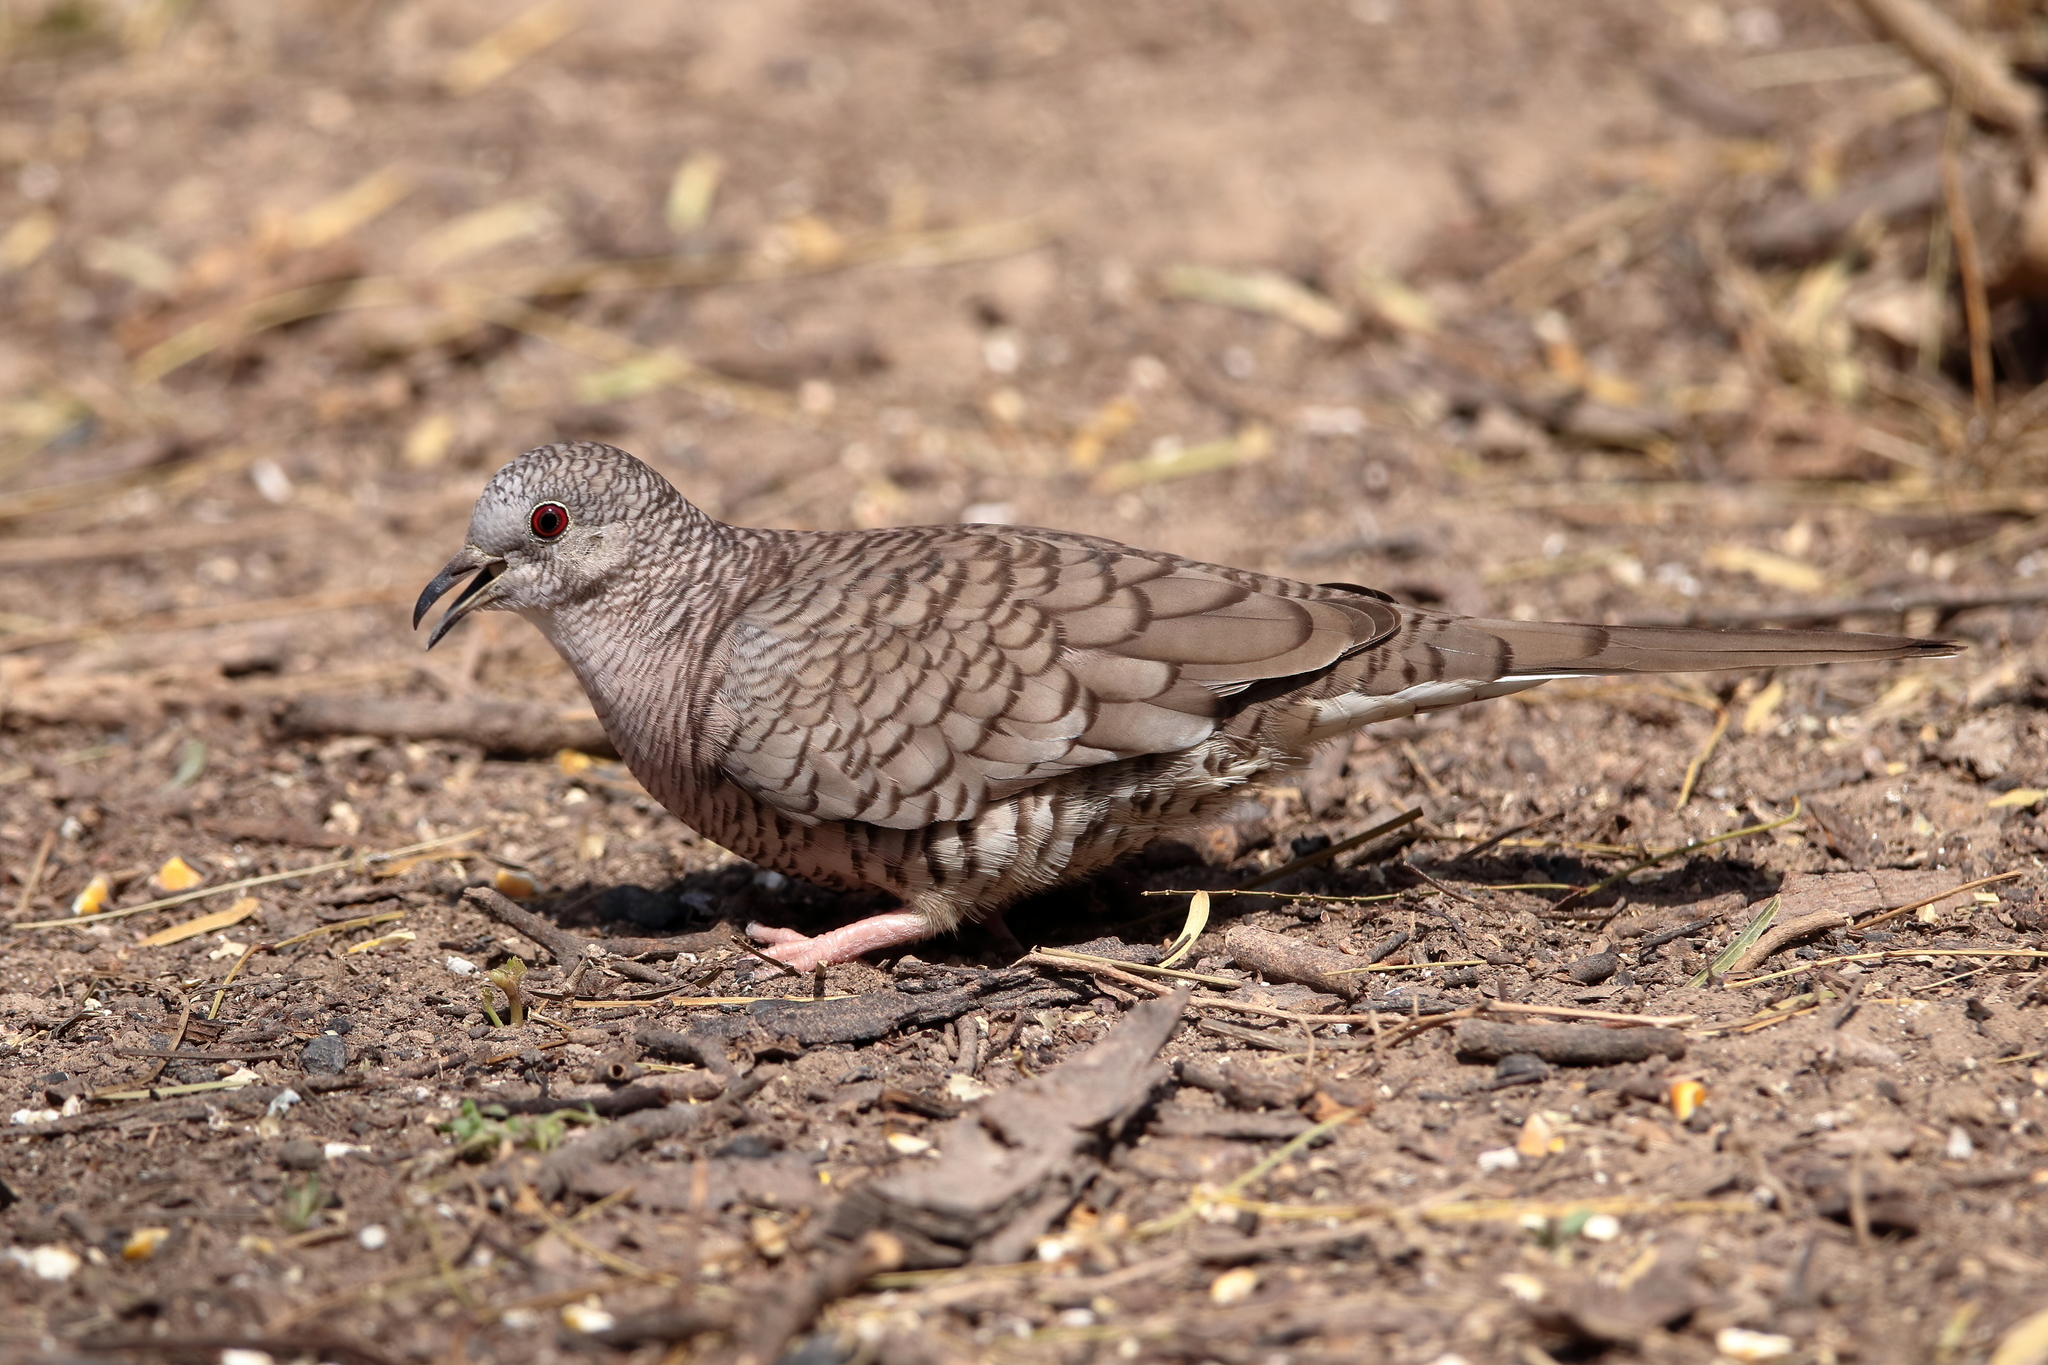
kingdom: Animalia
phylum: Chordata
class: Aves
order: Columbiformes
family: Columbidae
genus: Columbina
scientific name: Columbina inca
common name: Inca dove
